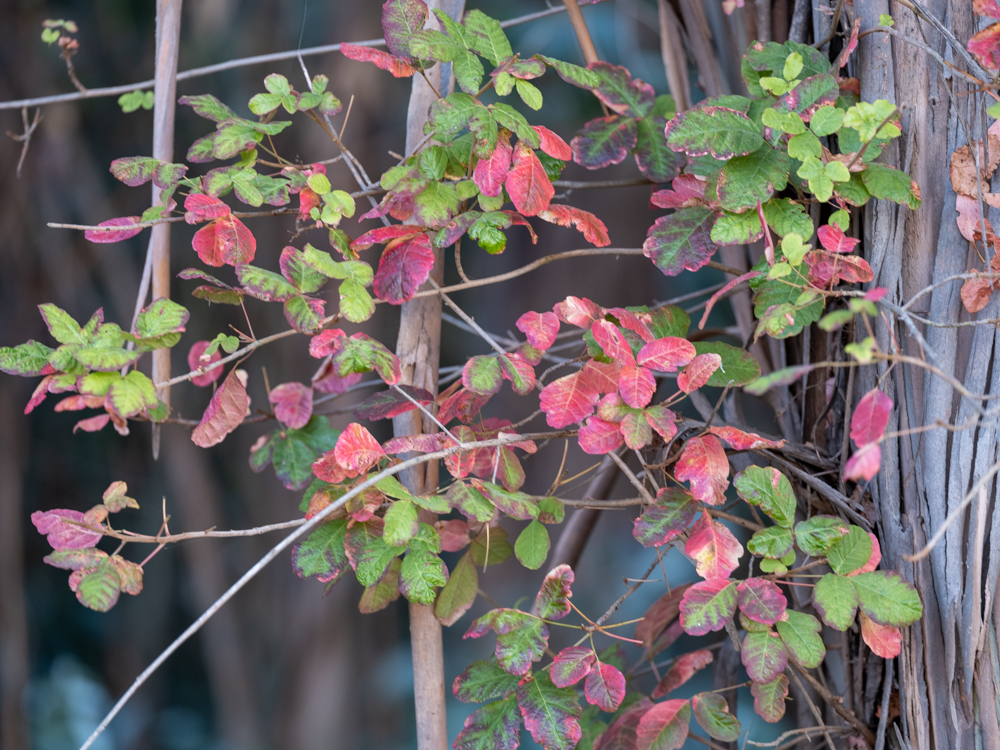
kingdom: Plantae
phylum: Tracheophyta
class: Magnoliopsida
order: Sapindales
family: Anacardiaceae
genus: Toxicodendron
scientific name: Toxicodendron diversilobum
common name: Pacific poison-oak
